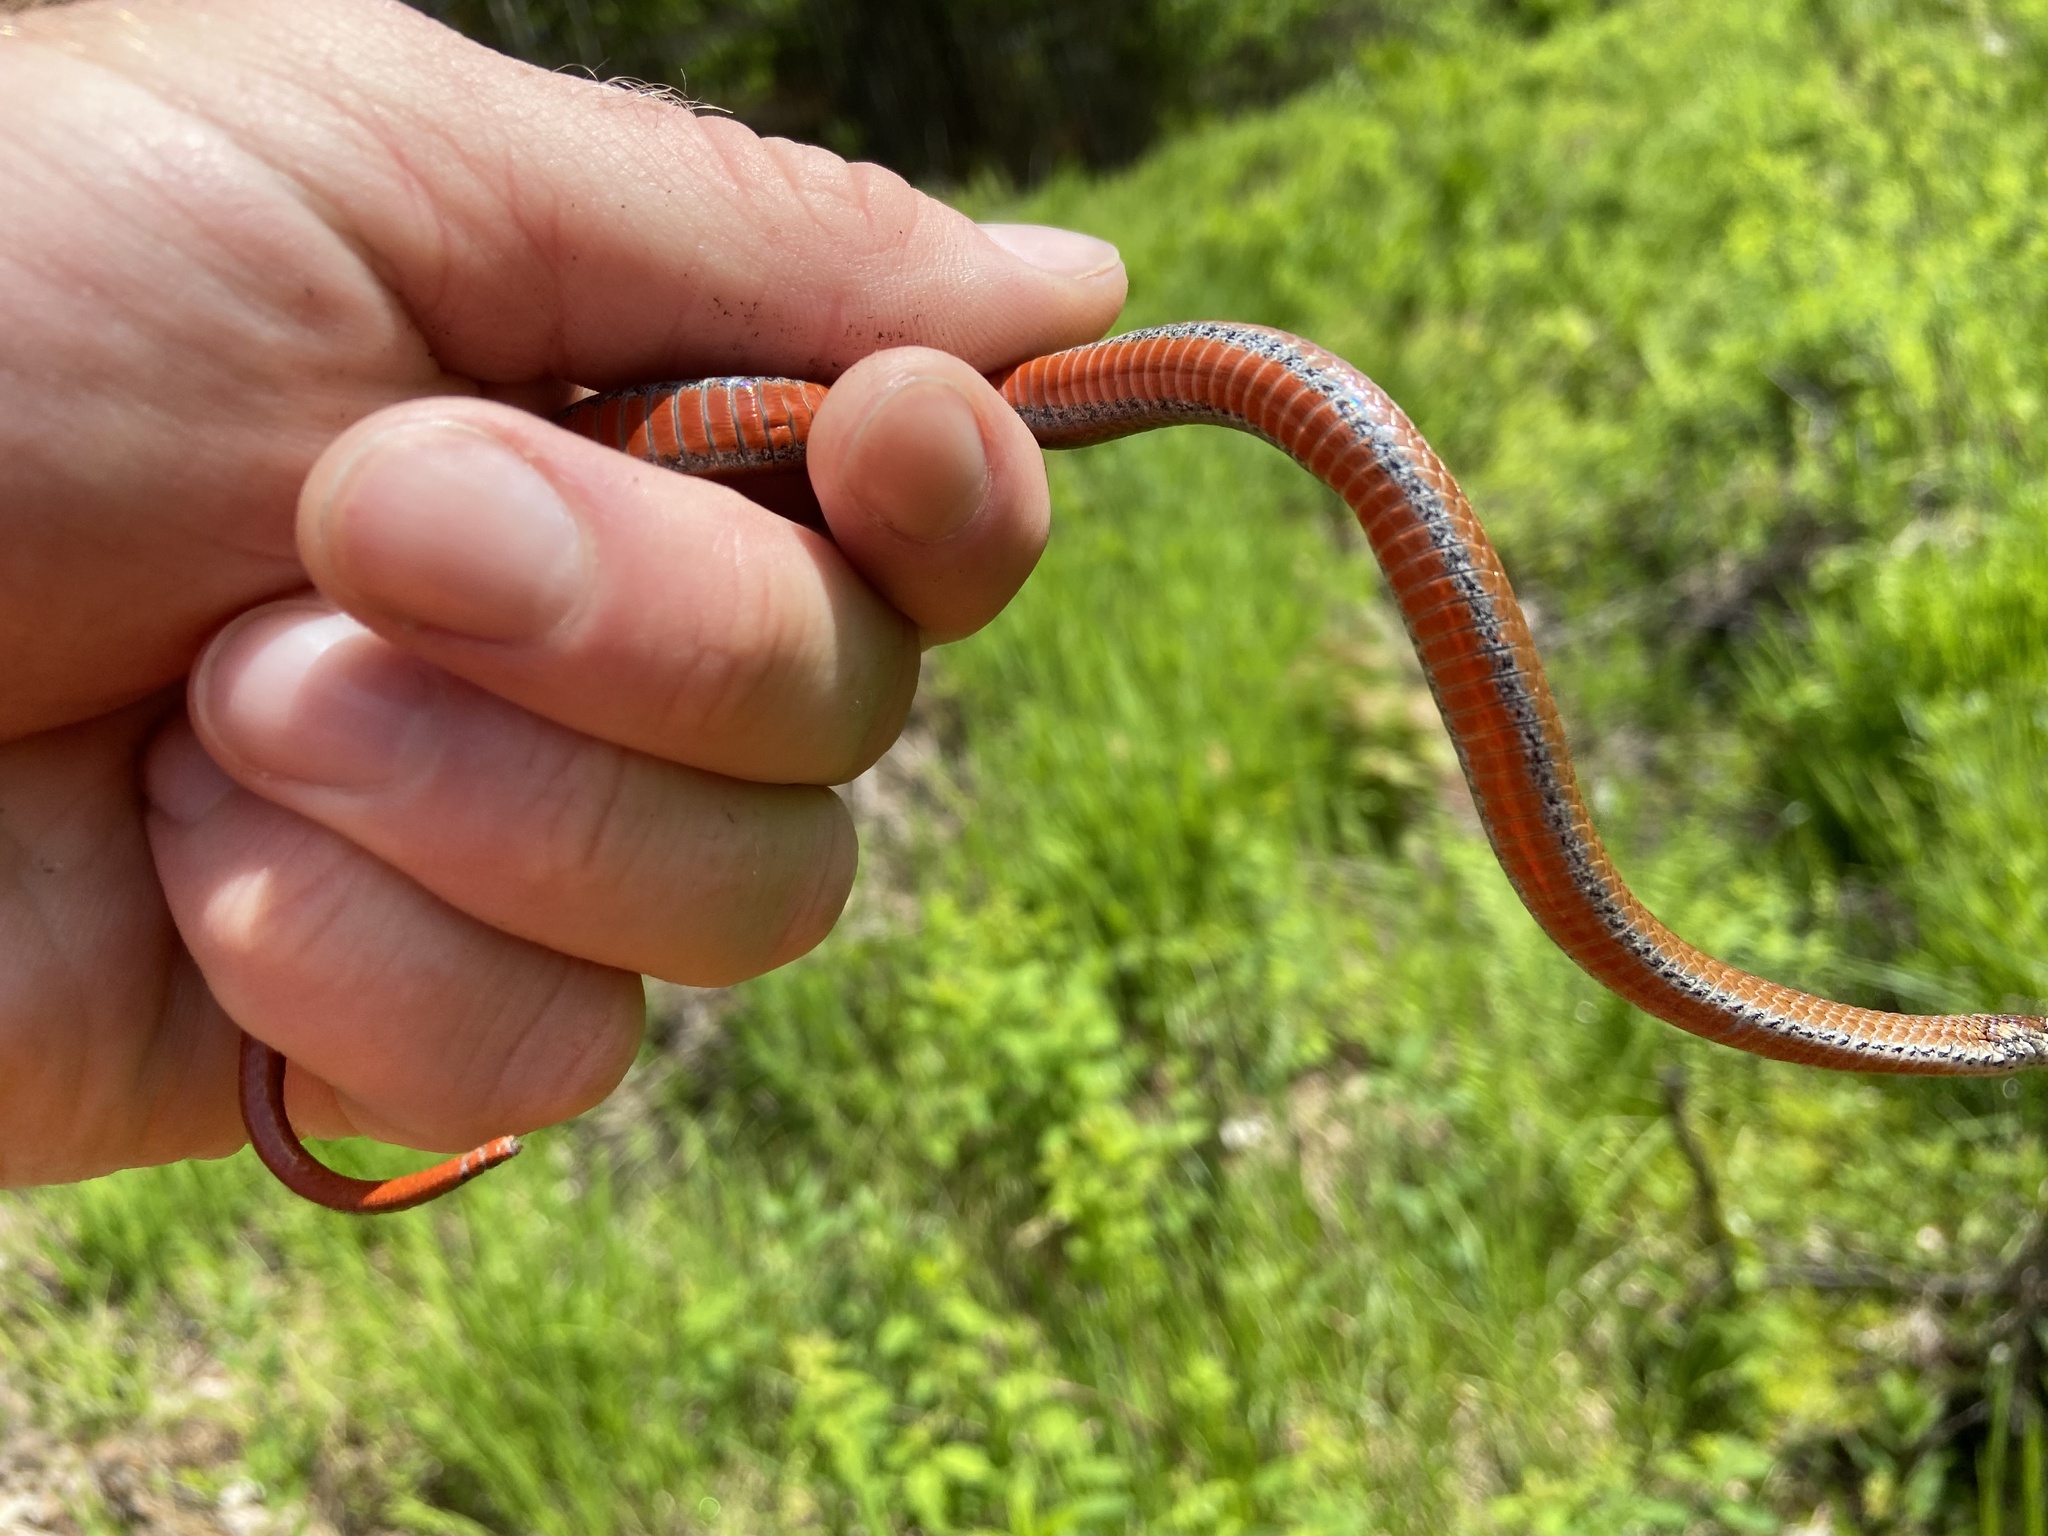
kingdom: Animalia
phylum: Chordata
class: Squamata
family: Colubridae
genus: Storeria
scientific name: Storeria occipitomaculata
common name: Redbelly snake
